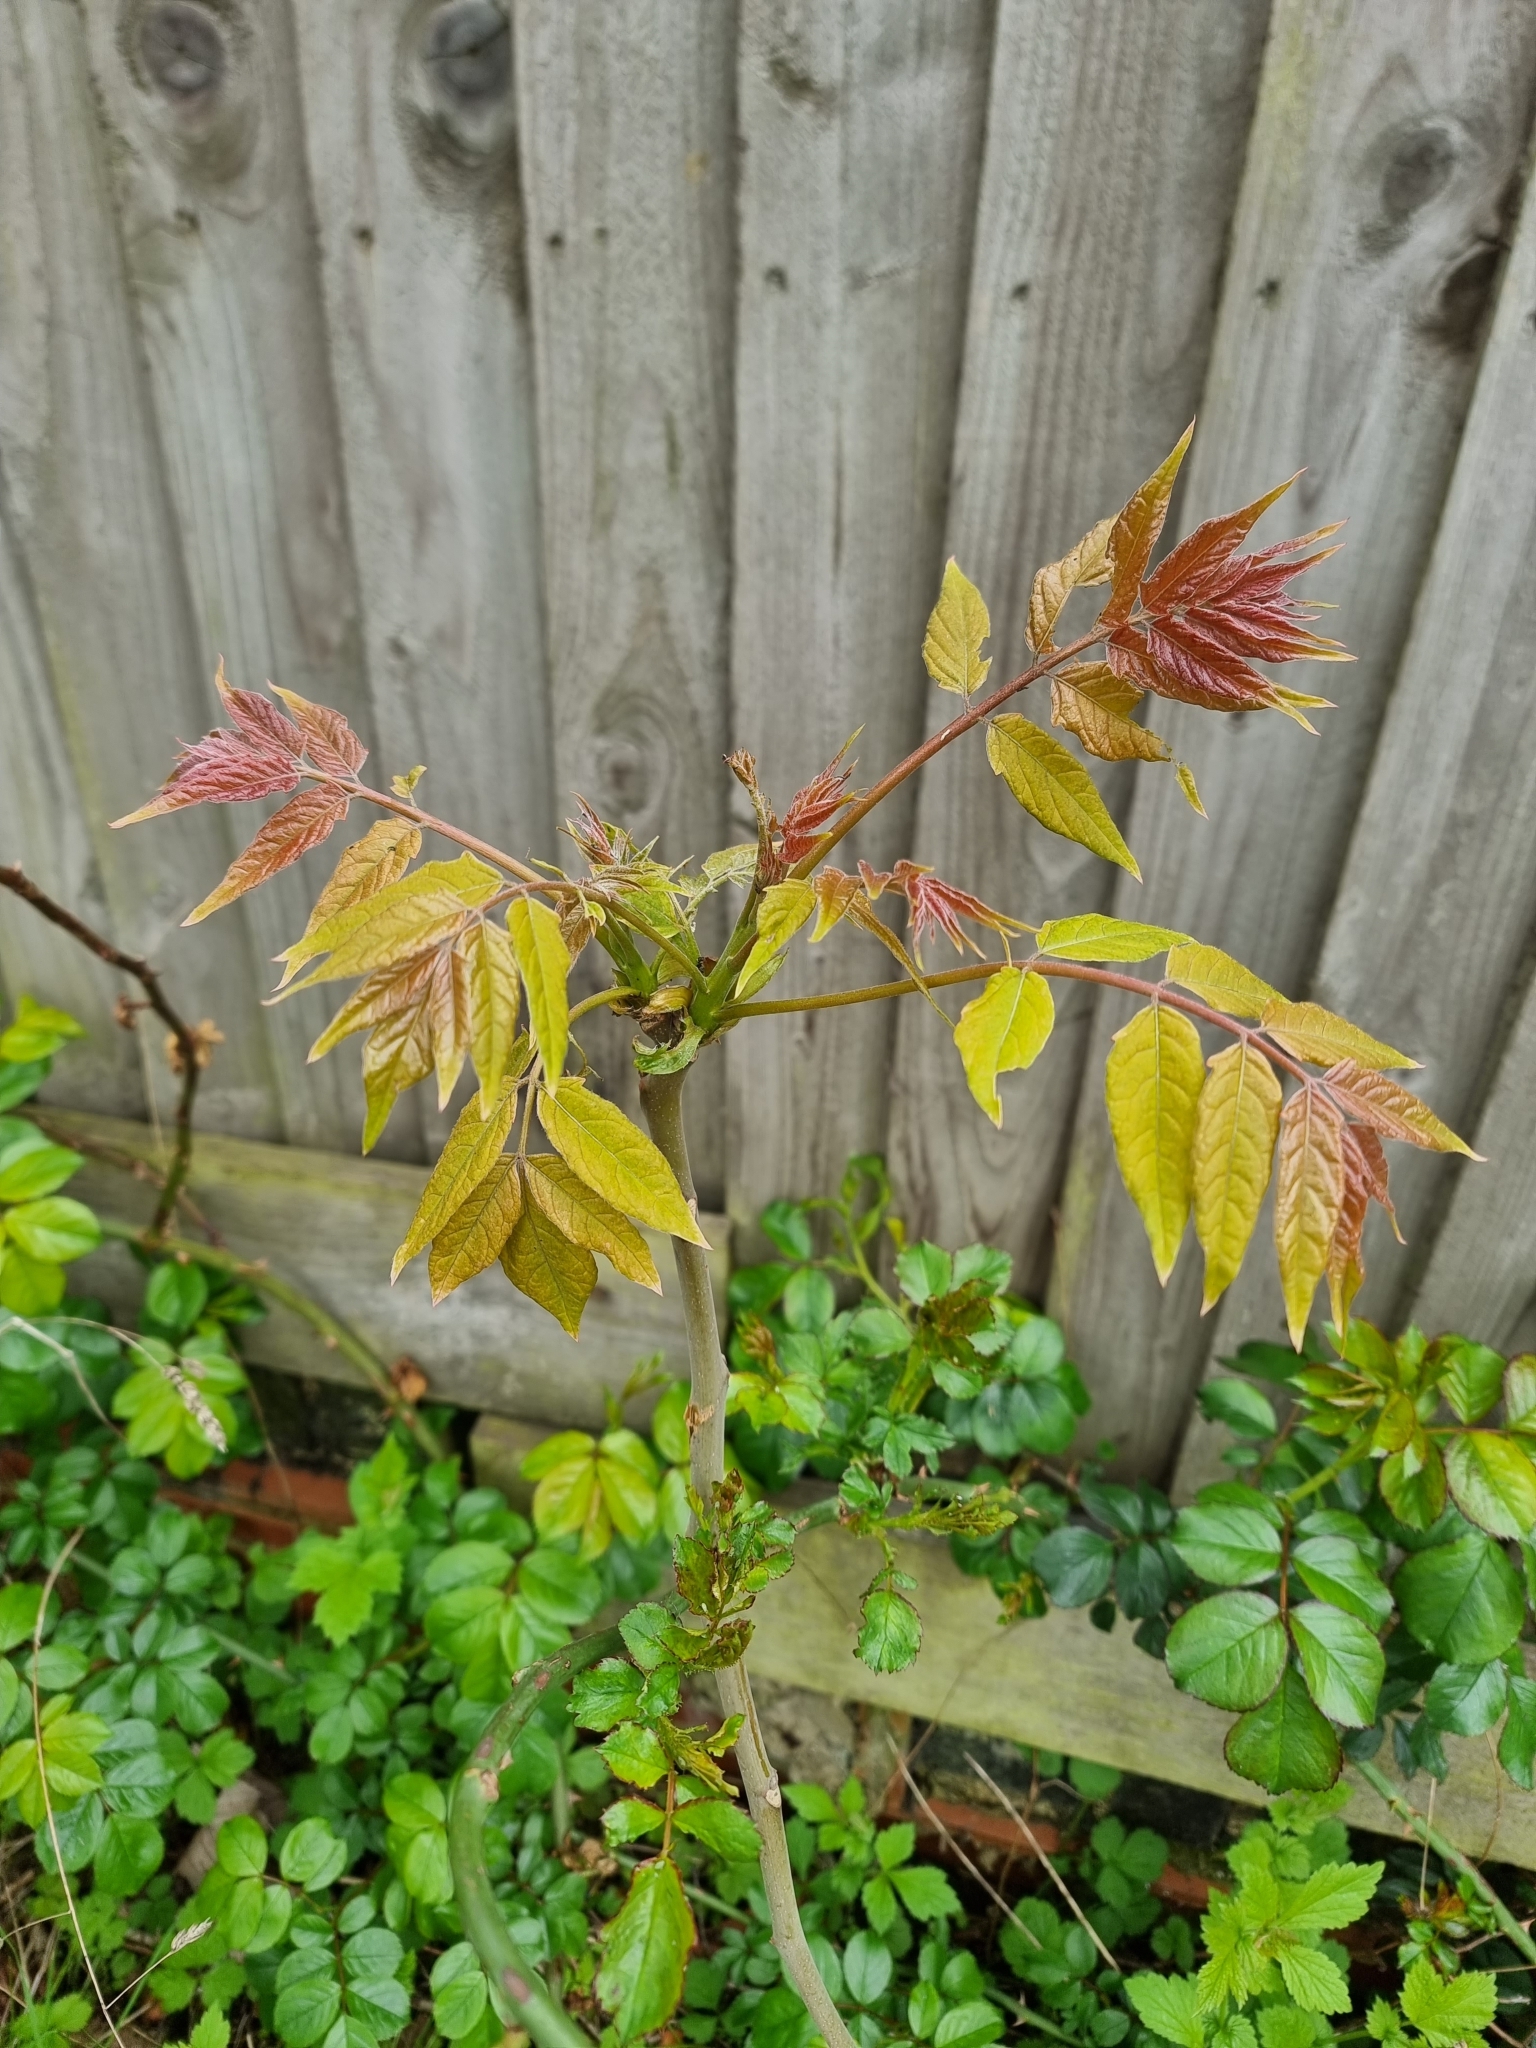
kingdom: Plantae
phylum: Tracheophyta
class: Magnoliopsida
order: Sapindales
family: Simaroubaceae
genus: Ailanthus
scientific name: Ailanthus altissima
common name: Tree-of-heaven
